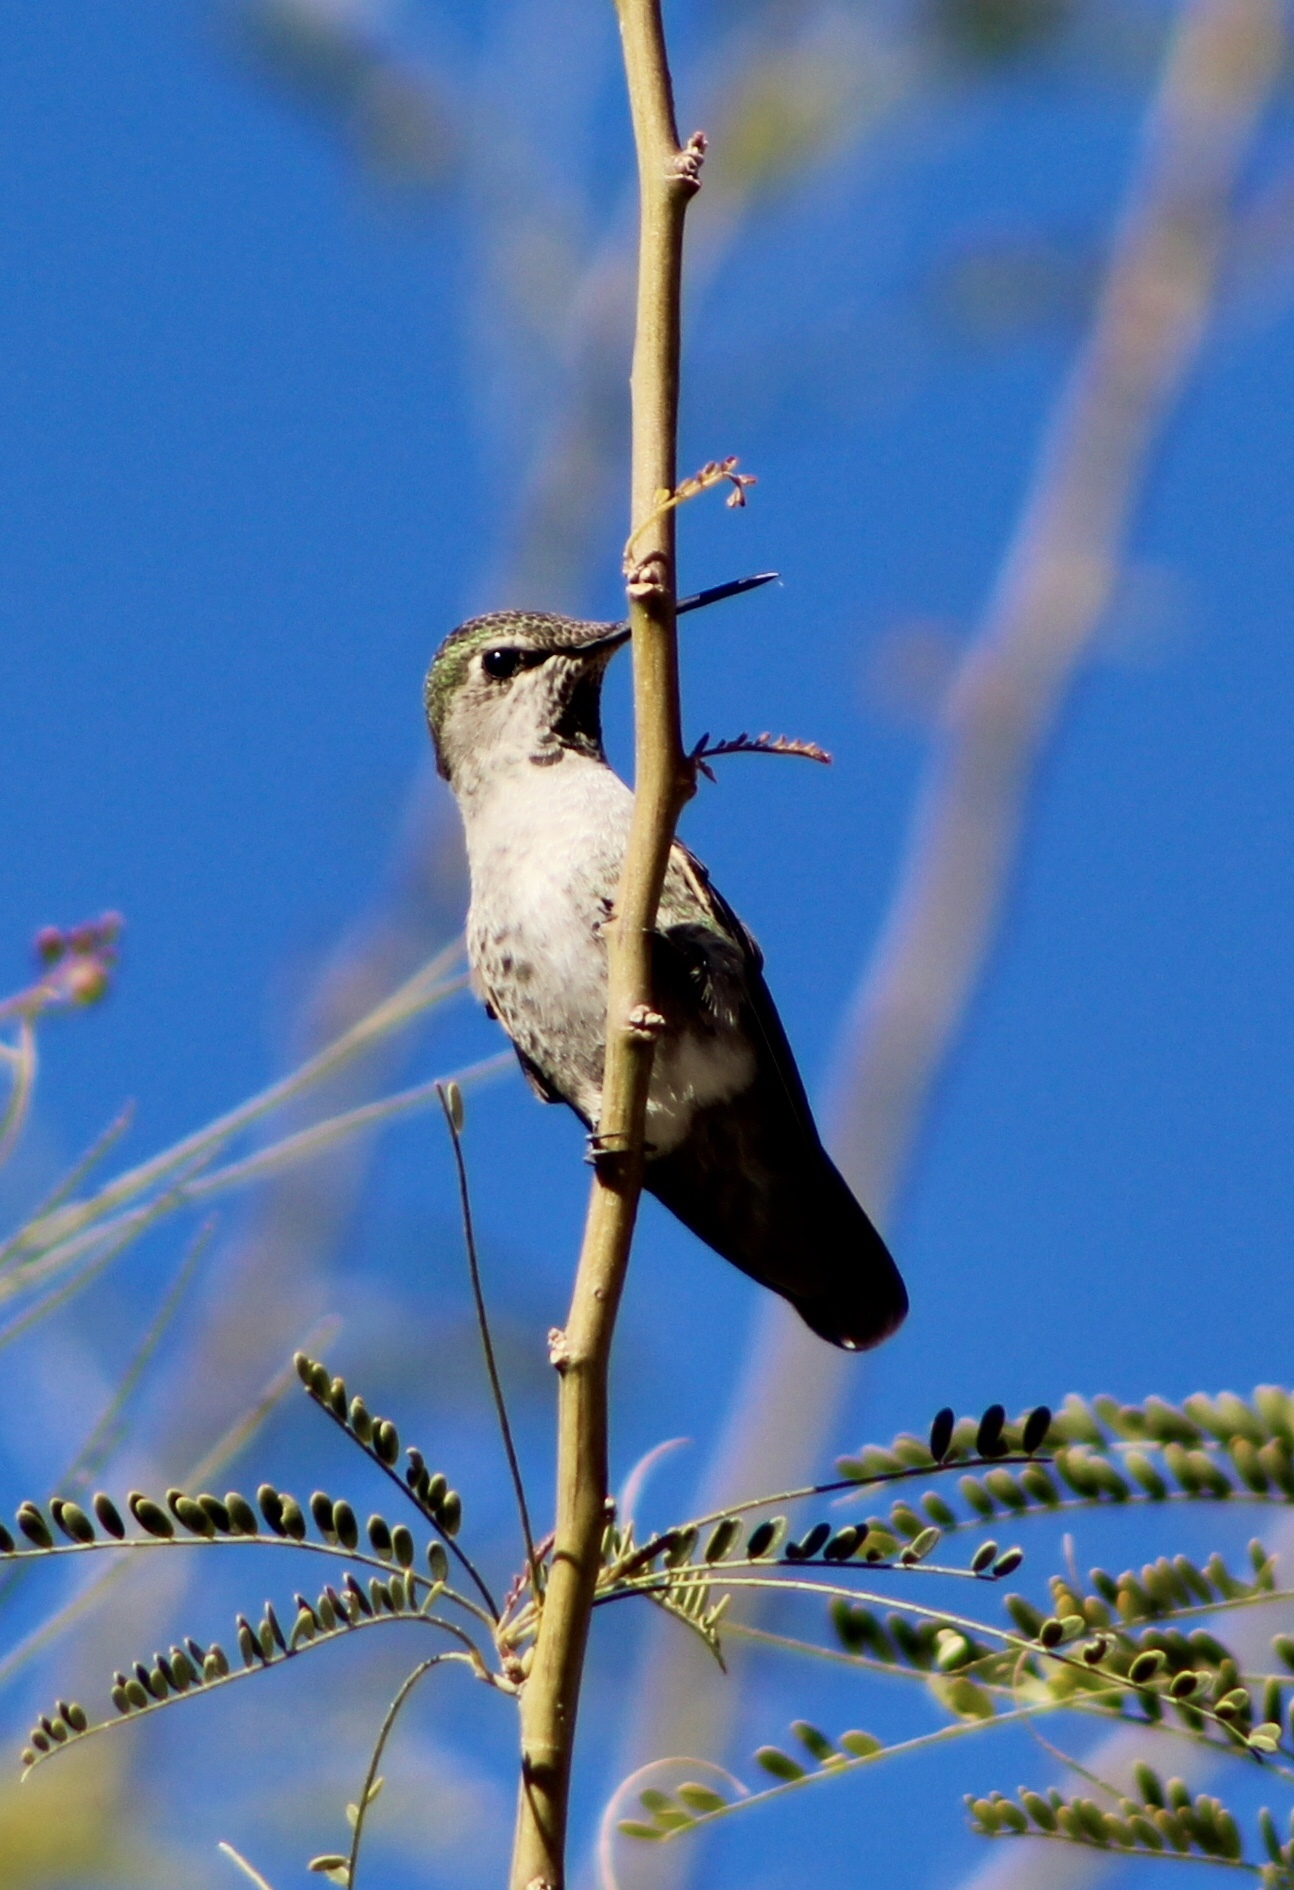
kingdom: Animalia
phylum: Chordata
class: Aves
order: Apodiformes
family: Trochilidae
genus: Calypte
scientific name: Calypte anna
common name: Anna's hummingbird
